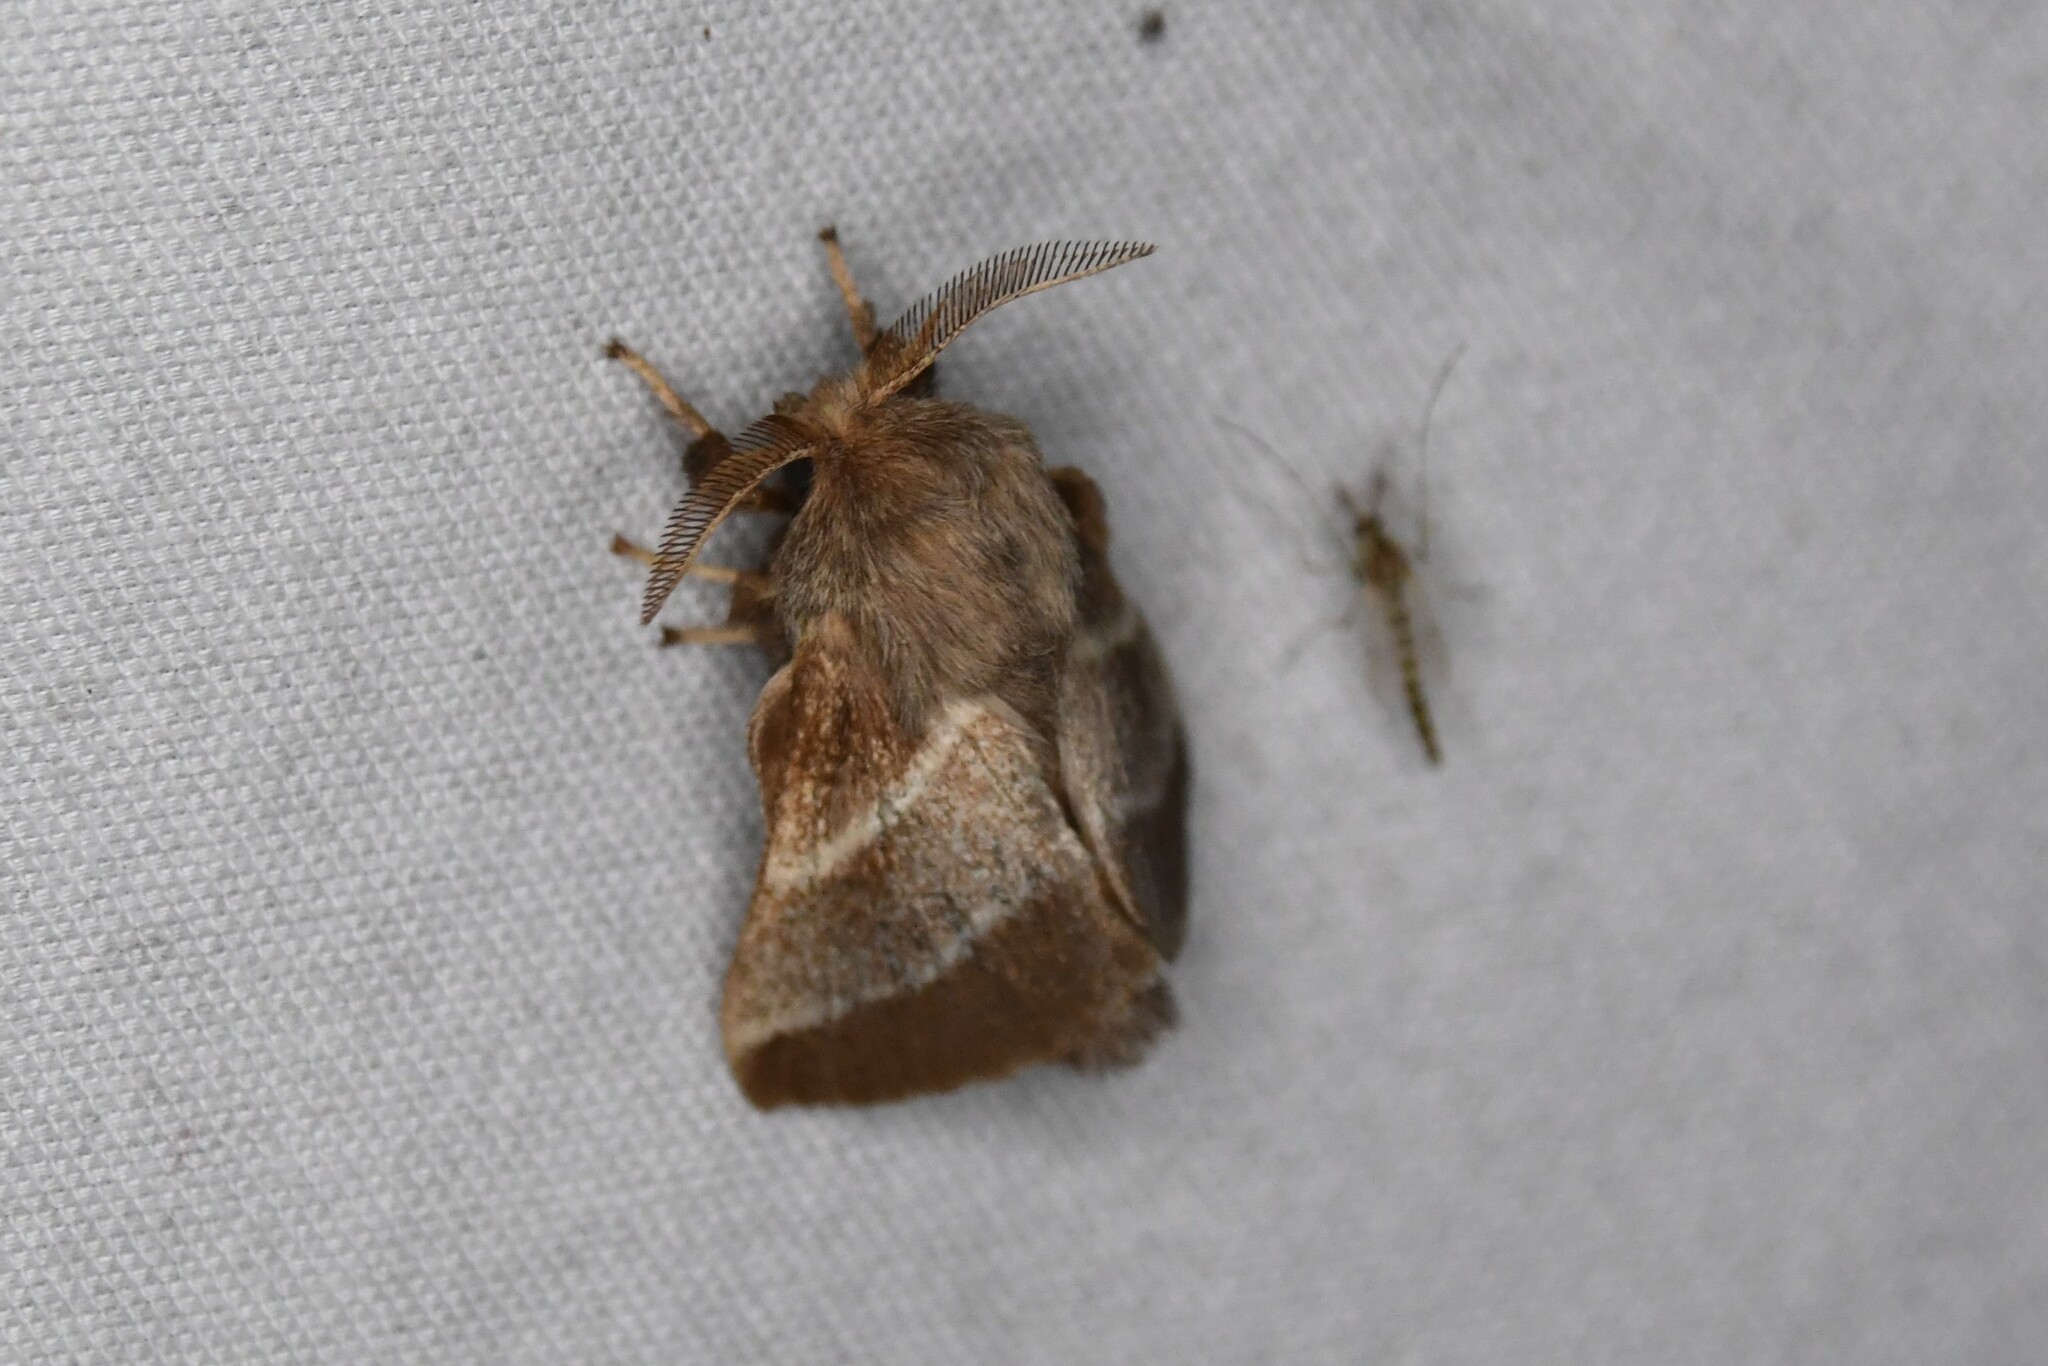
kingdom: Animalia
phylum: Arthropoda
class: Insecta
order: Lepidoptera
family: Lasiocampidae
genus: Malacosoma
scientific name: Malacosoma americana
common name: Eastern tent caterpillar moth
